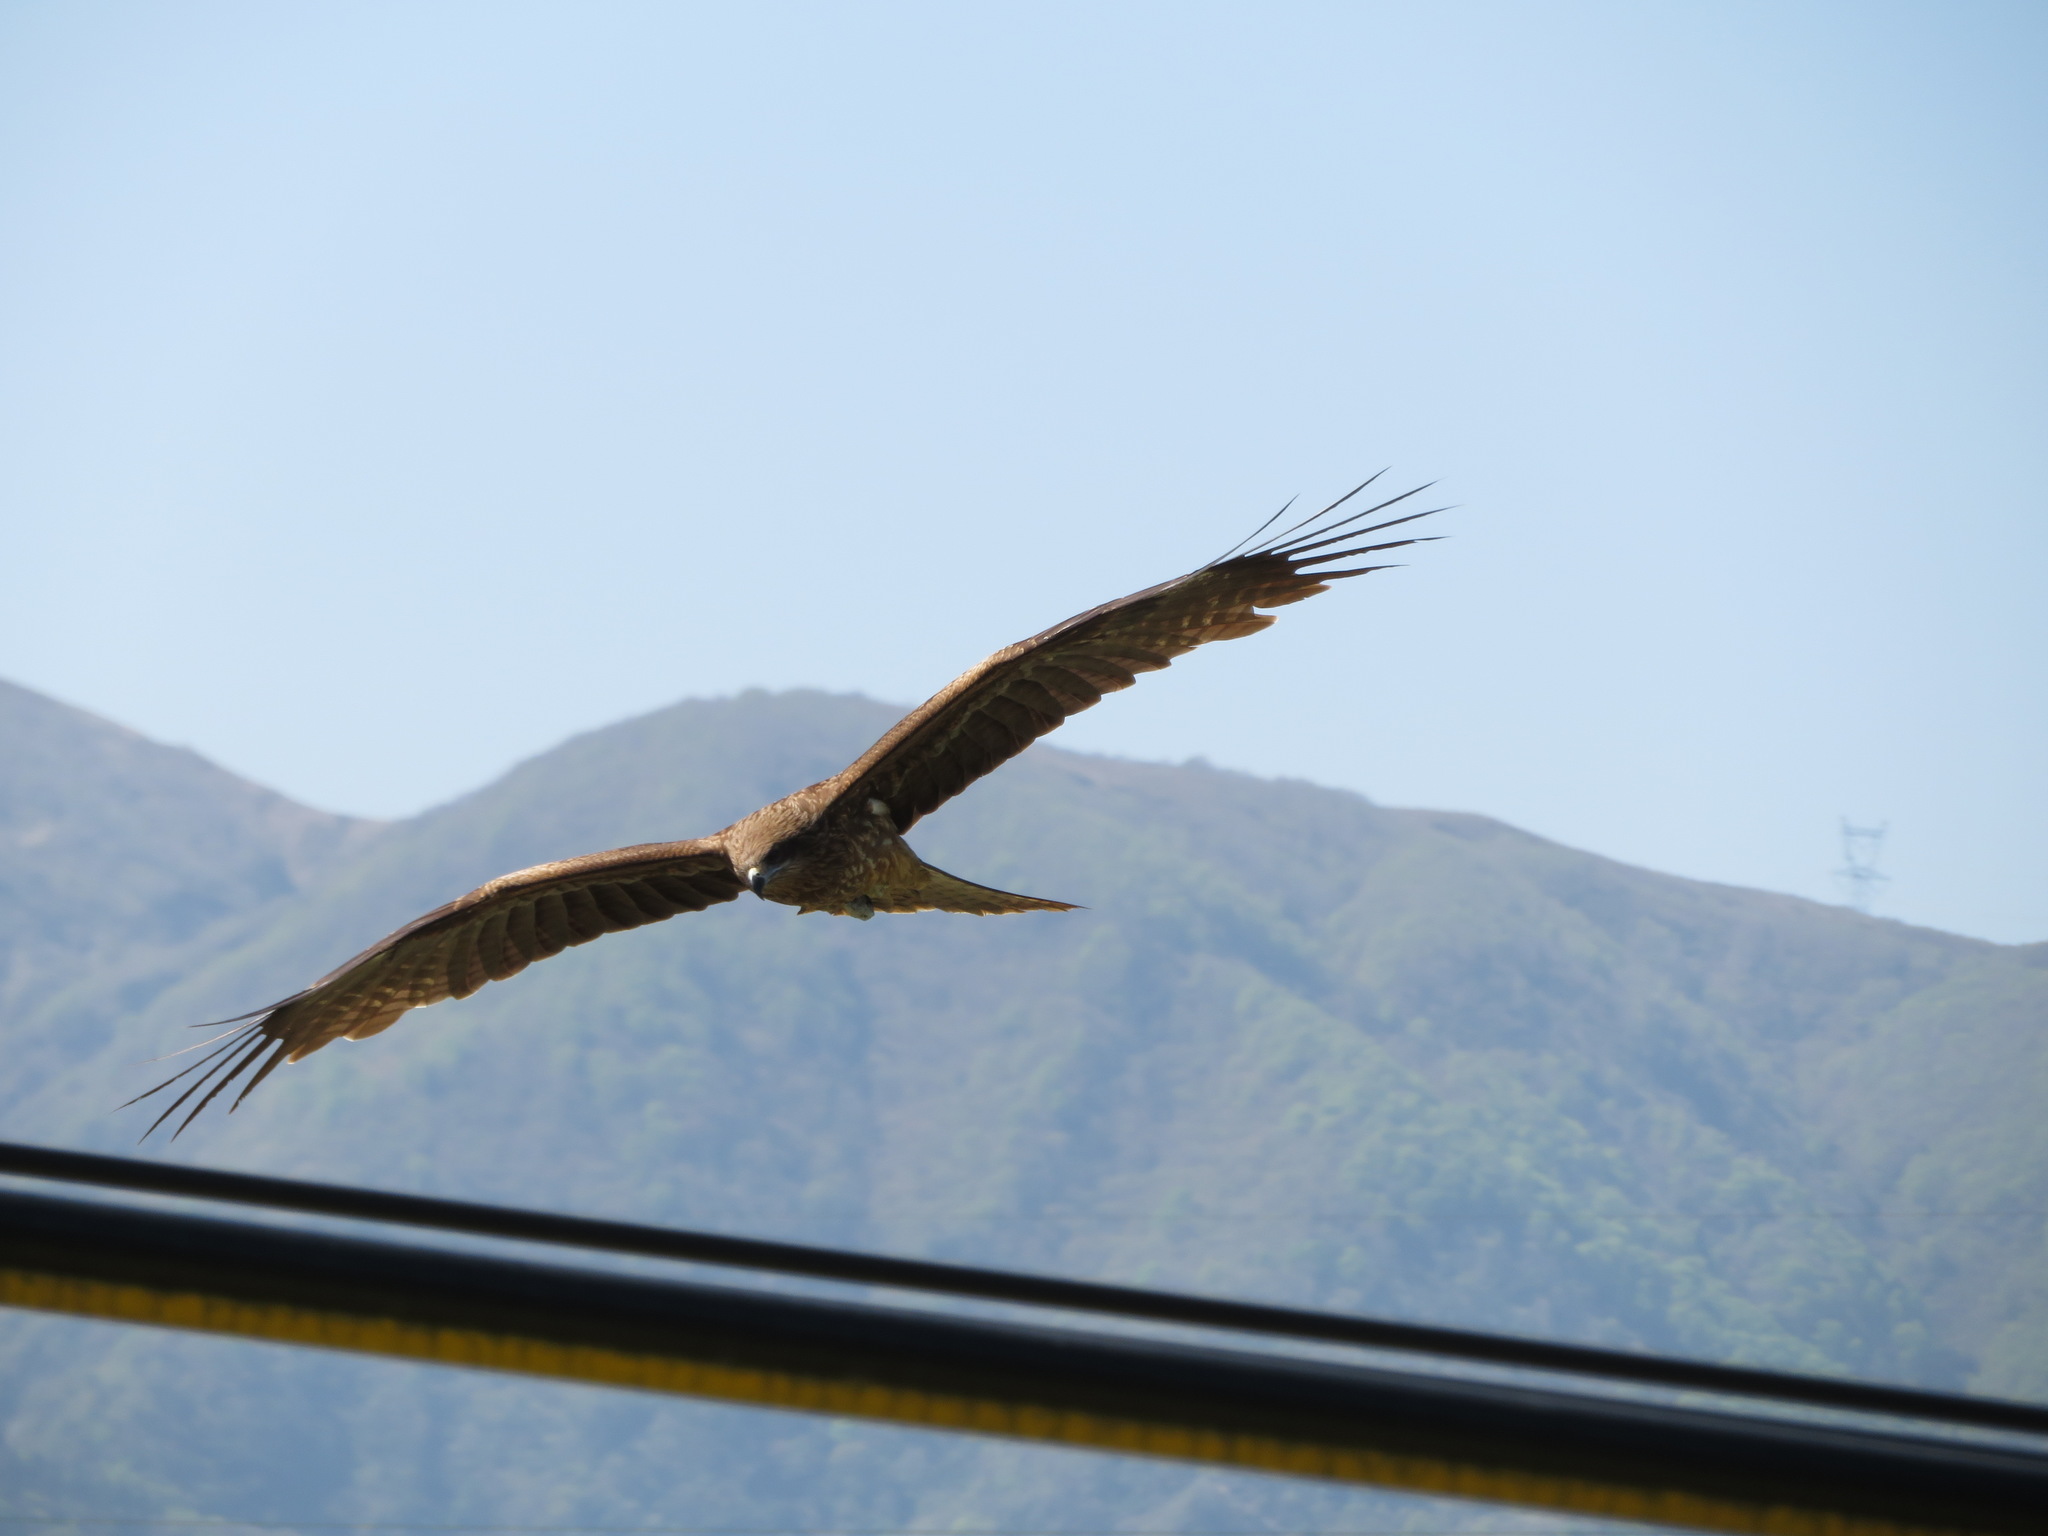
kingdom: Animalia
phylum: Chordata
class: Aves
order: Accipitriformes
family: Accipitridae
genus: Milvus
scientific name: Milvus migrans
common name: Black kite
